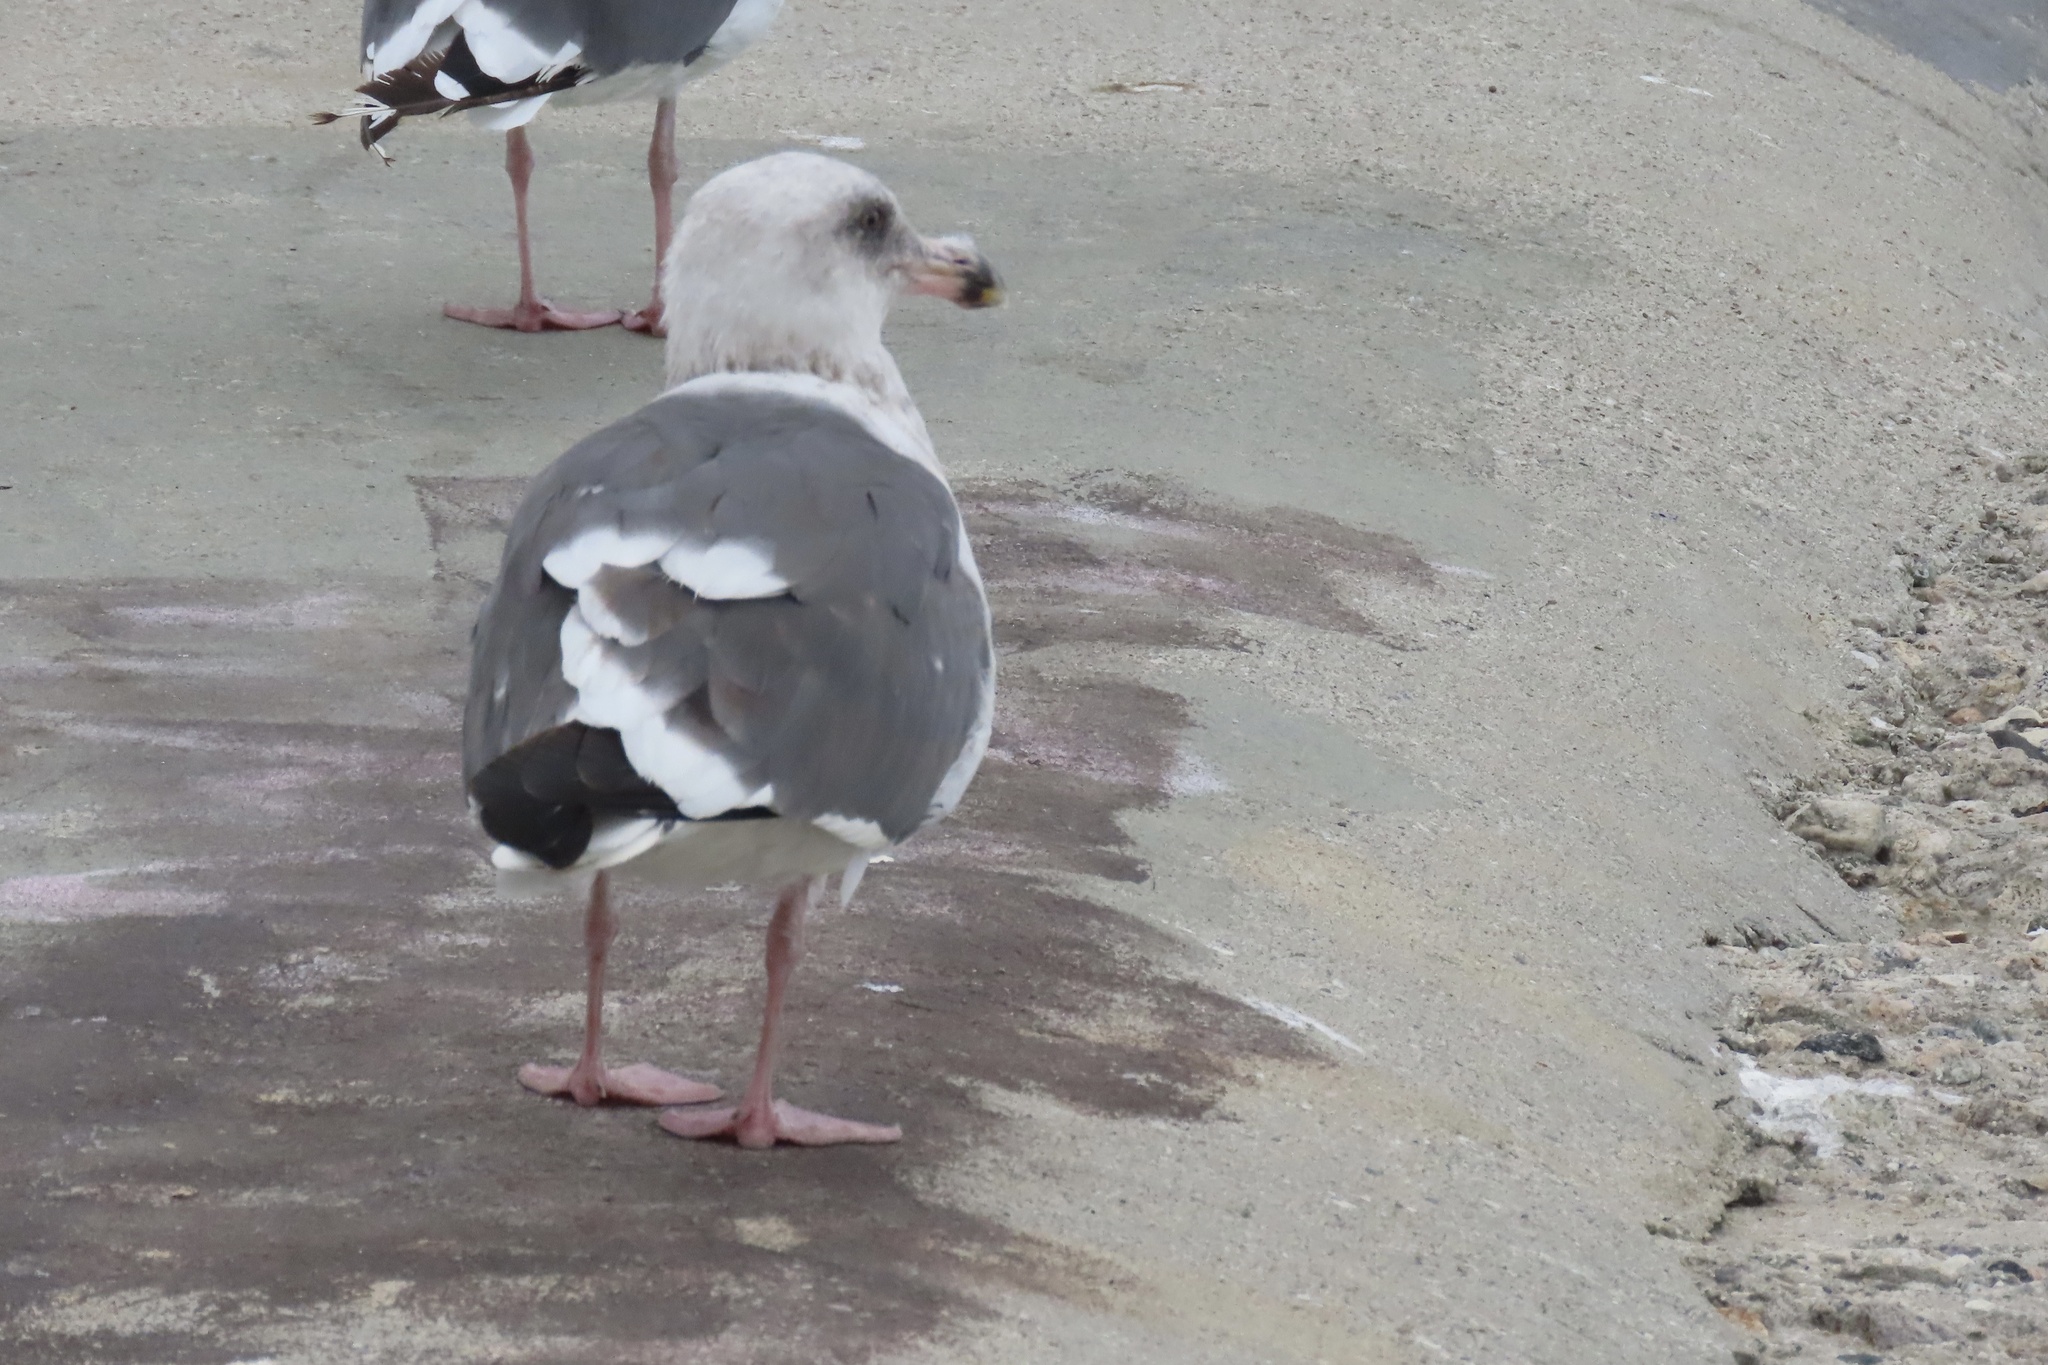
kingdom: Animalia
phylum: Chordata
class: Aves
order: Charadriiformes
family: Laridae
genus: Larus
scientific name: Larus occidentalis
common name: Western gull
